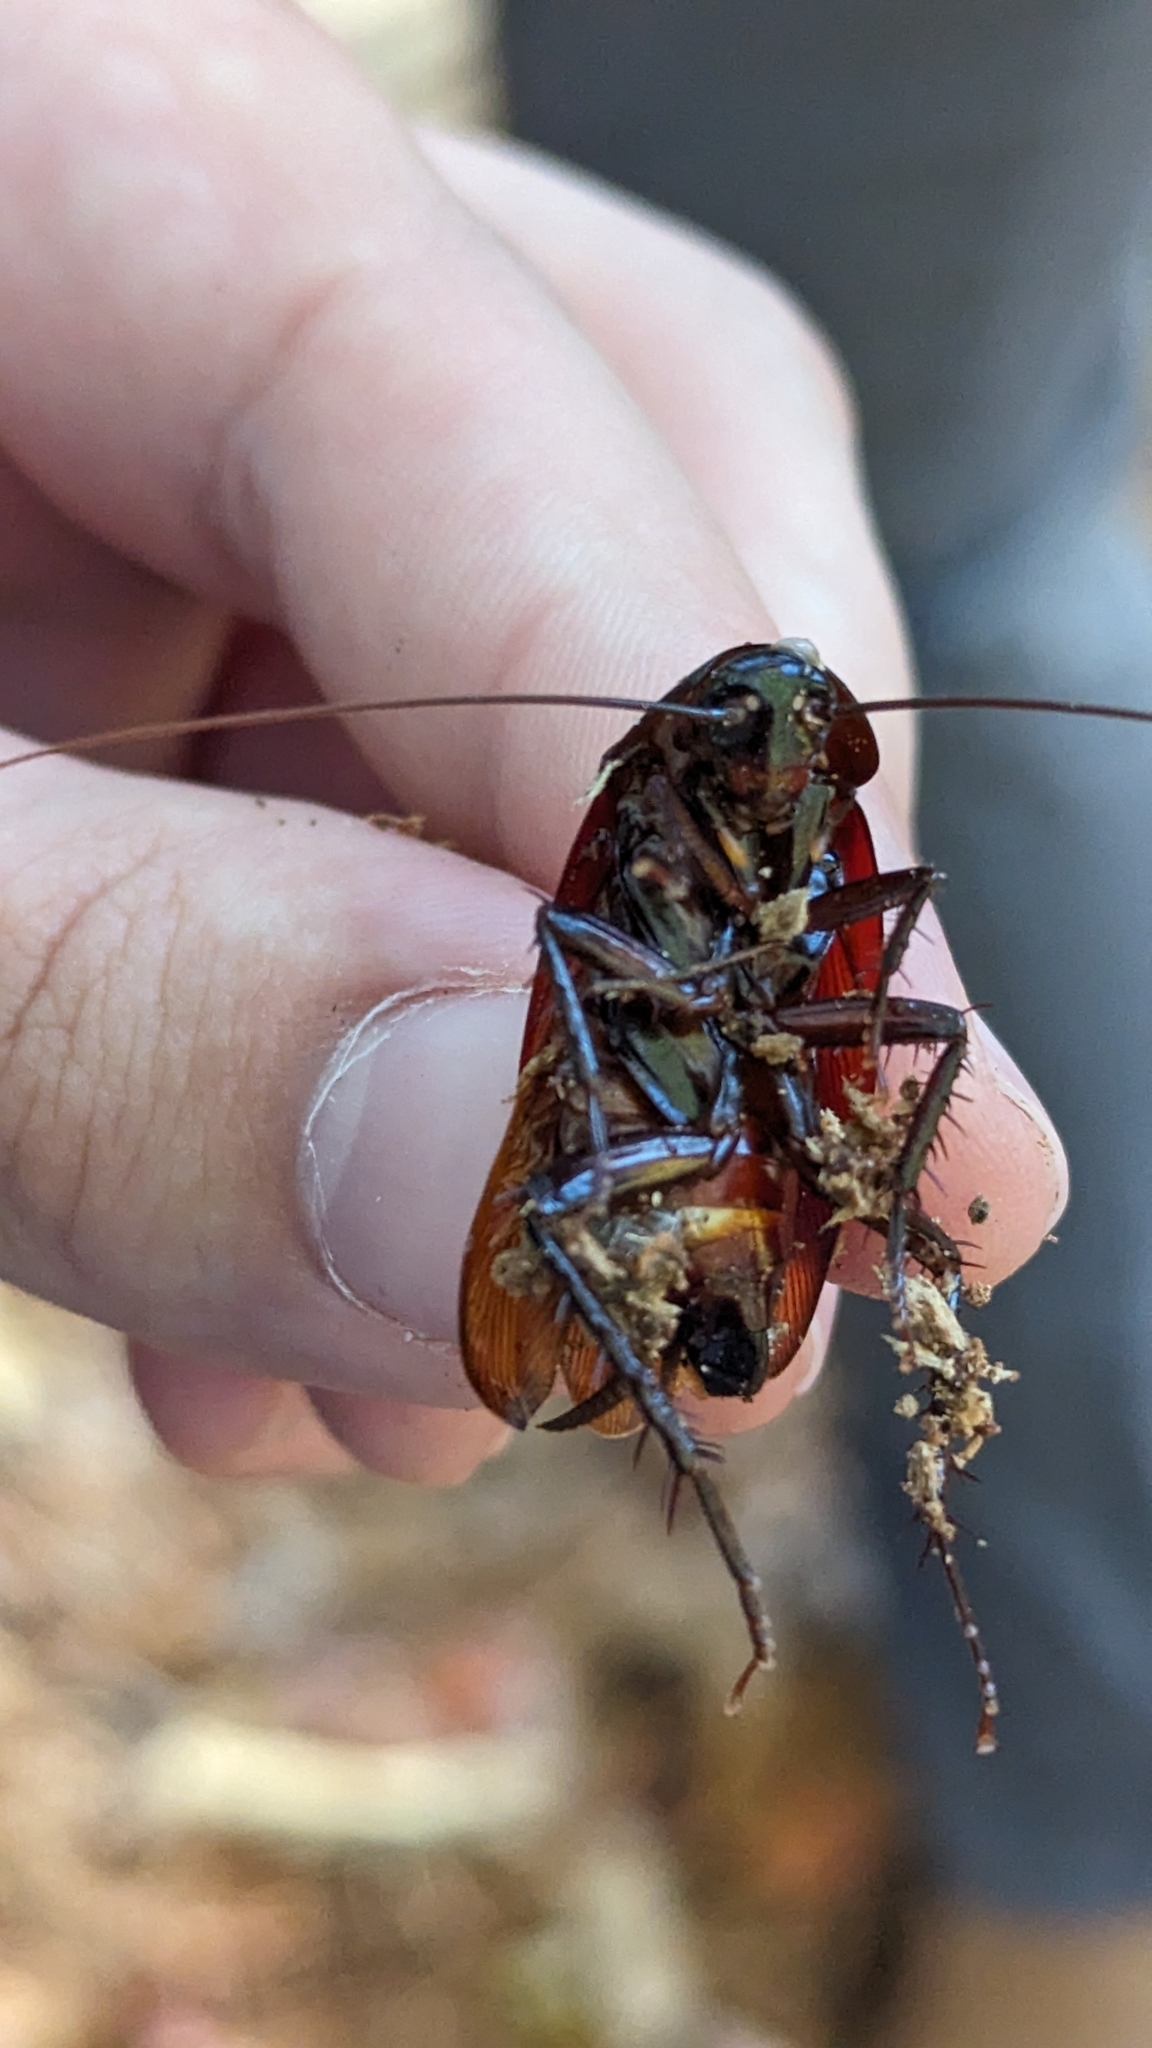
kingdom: Animalia
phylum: Arthropoda
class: Insecta
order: Blattodea
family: Blattidae
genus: Periplaneta
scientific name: Periplaneta fuliginosa
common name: Smokeybrown cockroad
